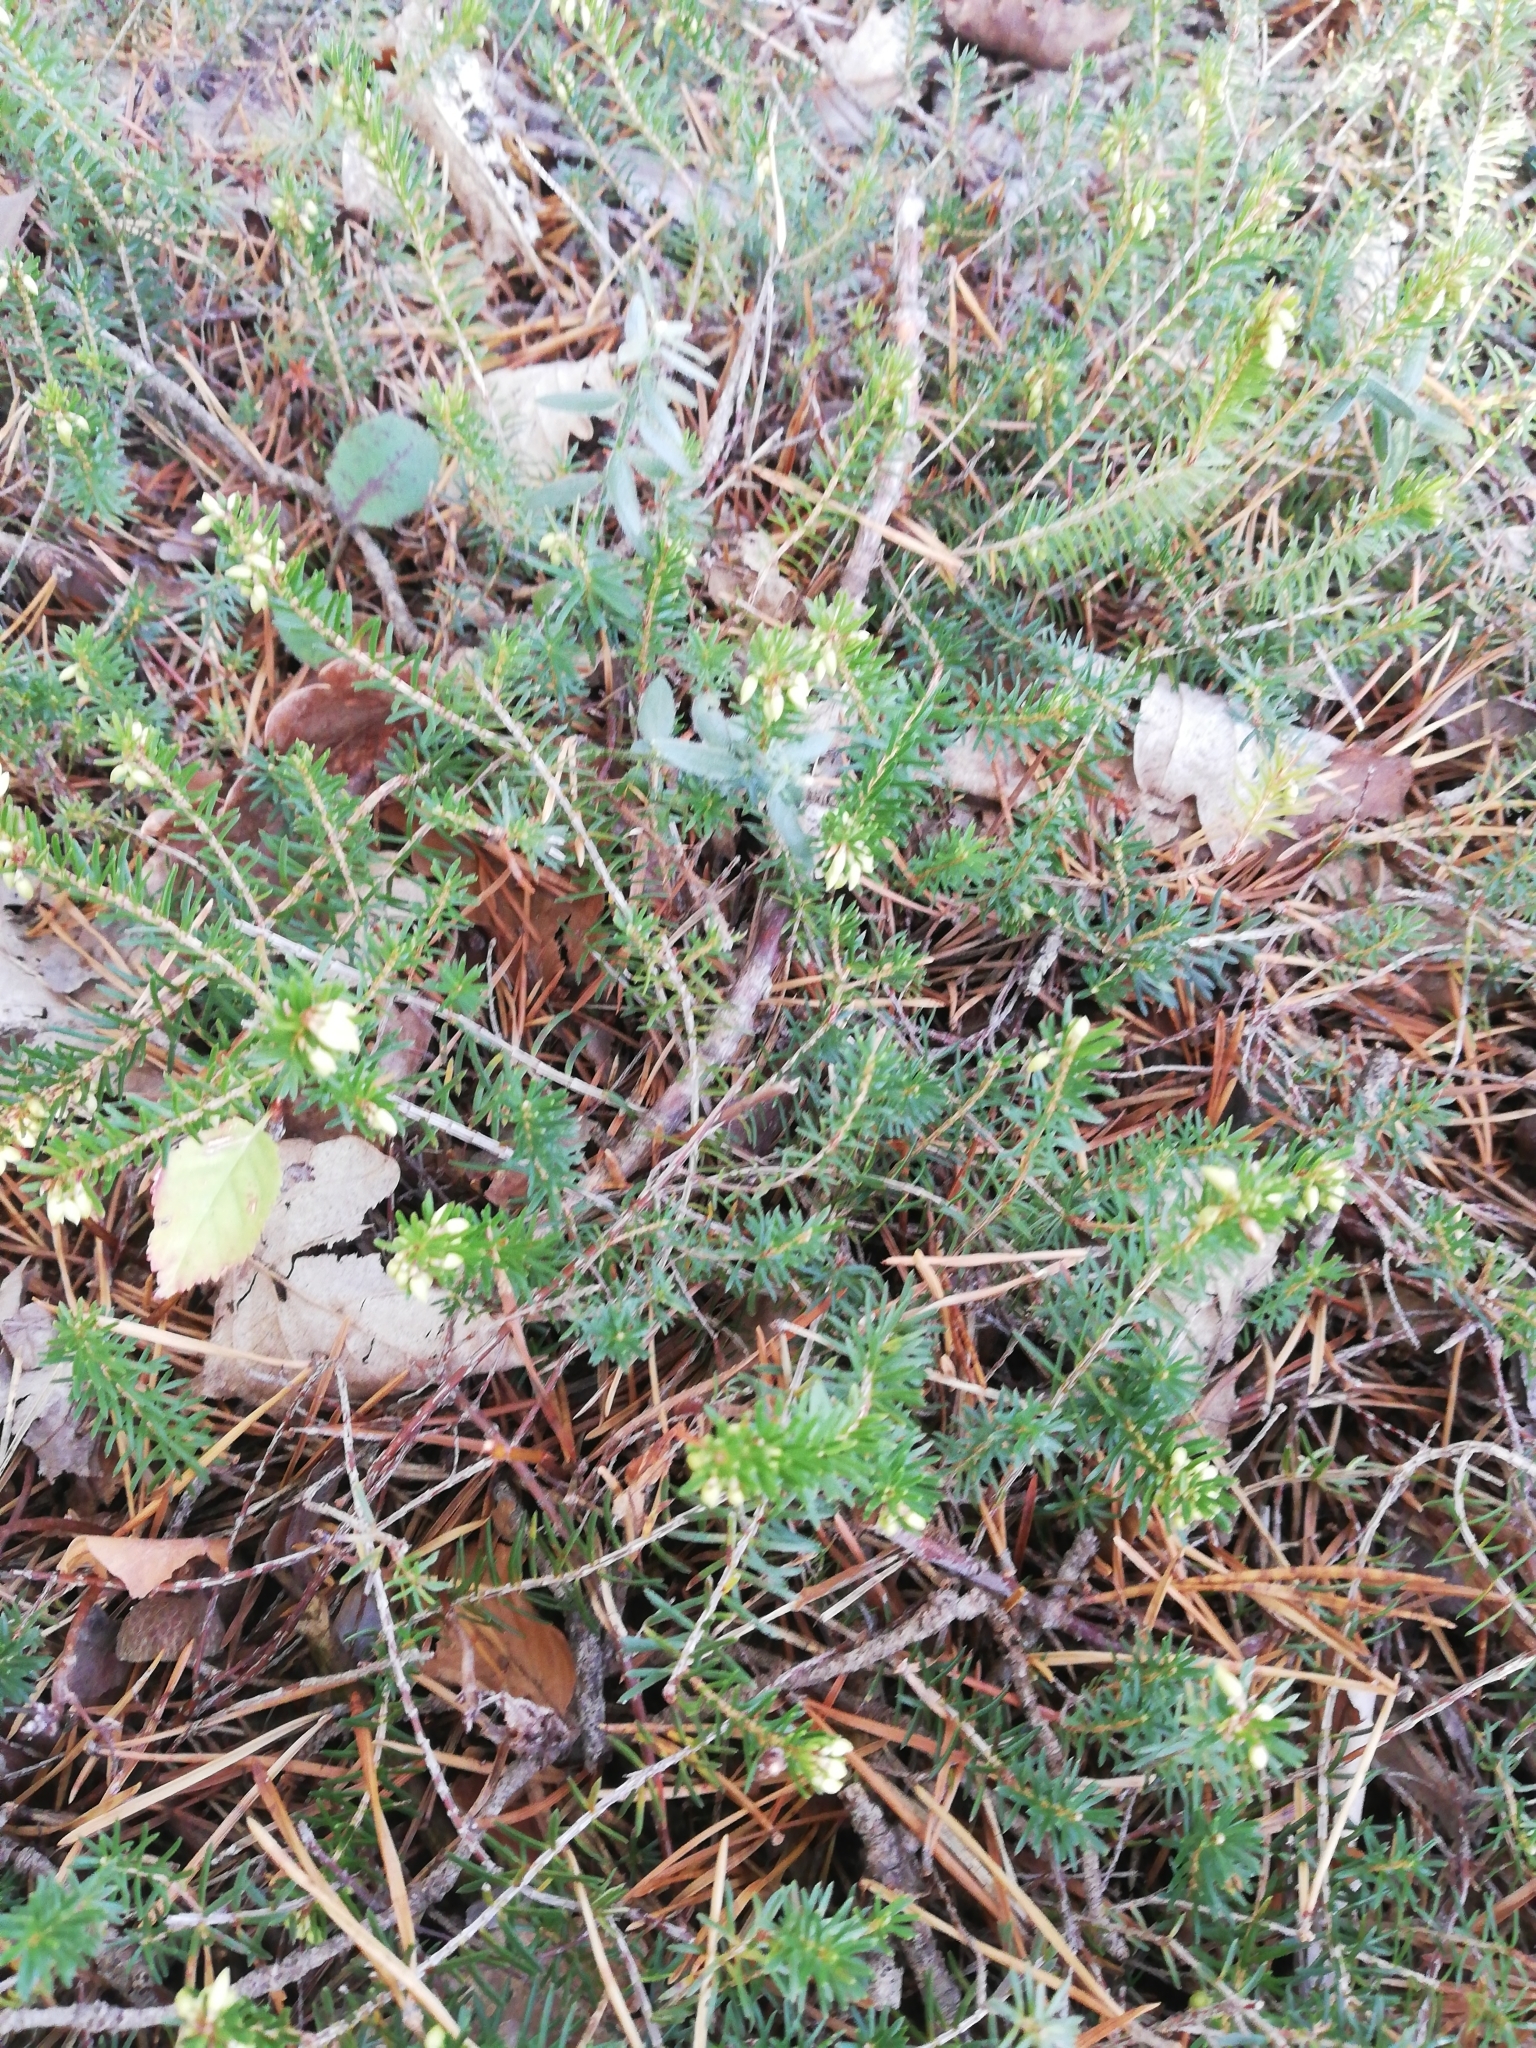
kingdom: Plantae
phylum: Tracheophyta
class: Magnoliopsida
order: Ericales
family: Ericaceae
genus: Erica
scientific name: Erica carnea
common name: Winter heath
